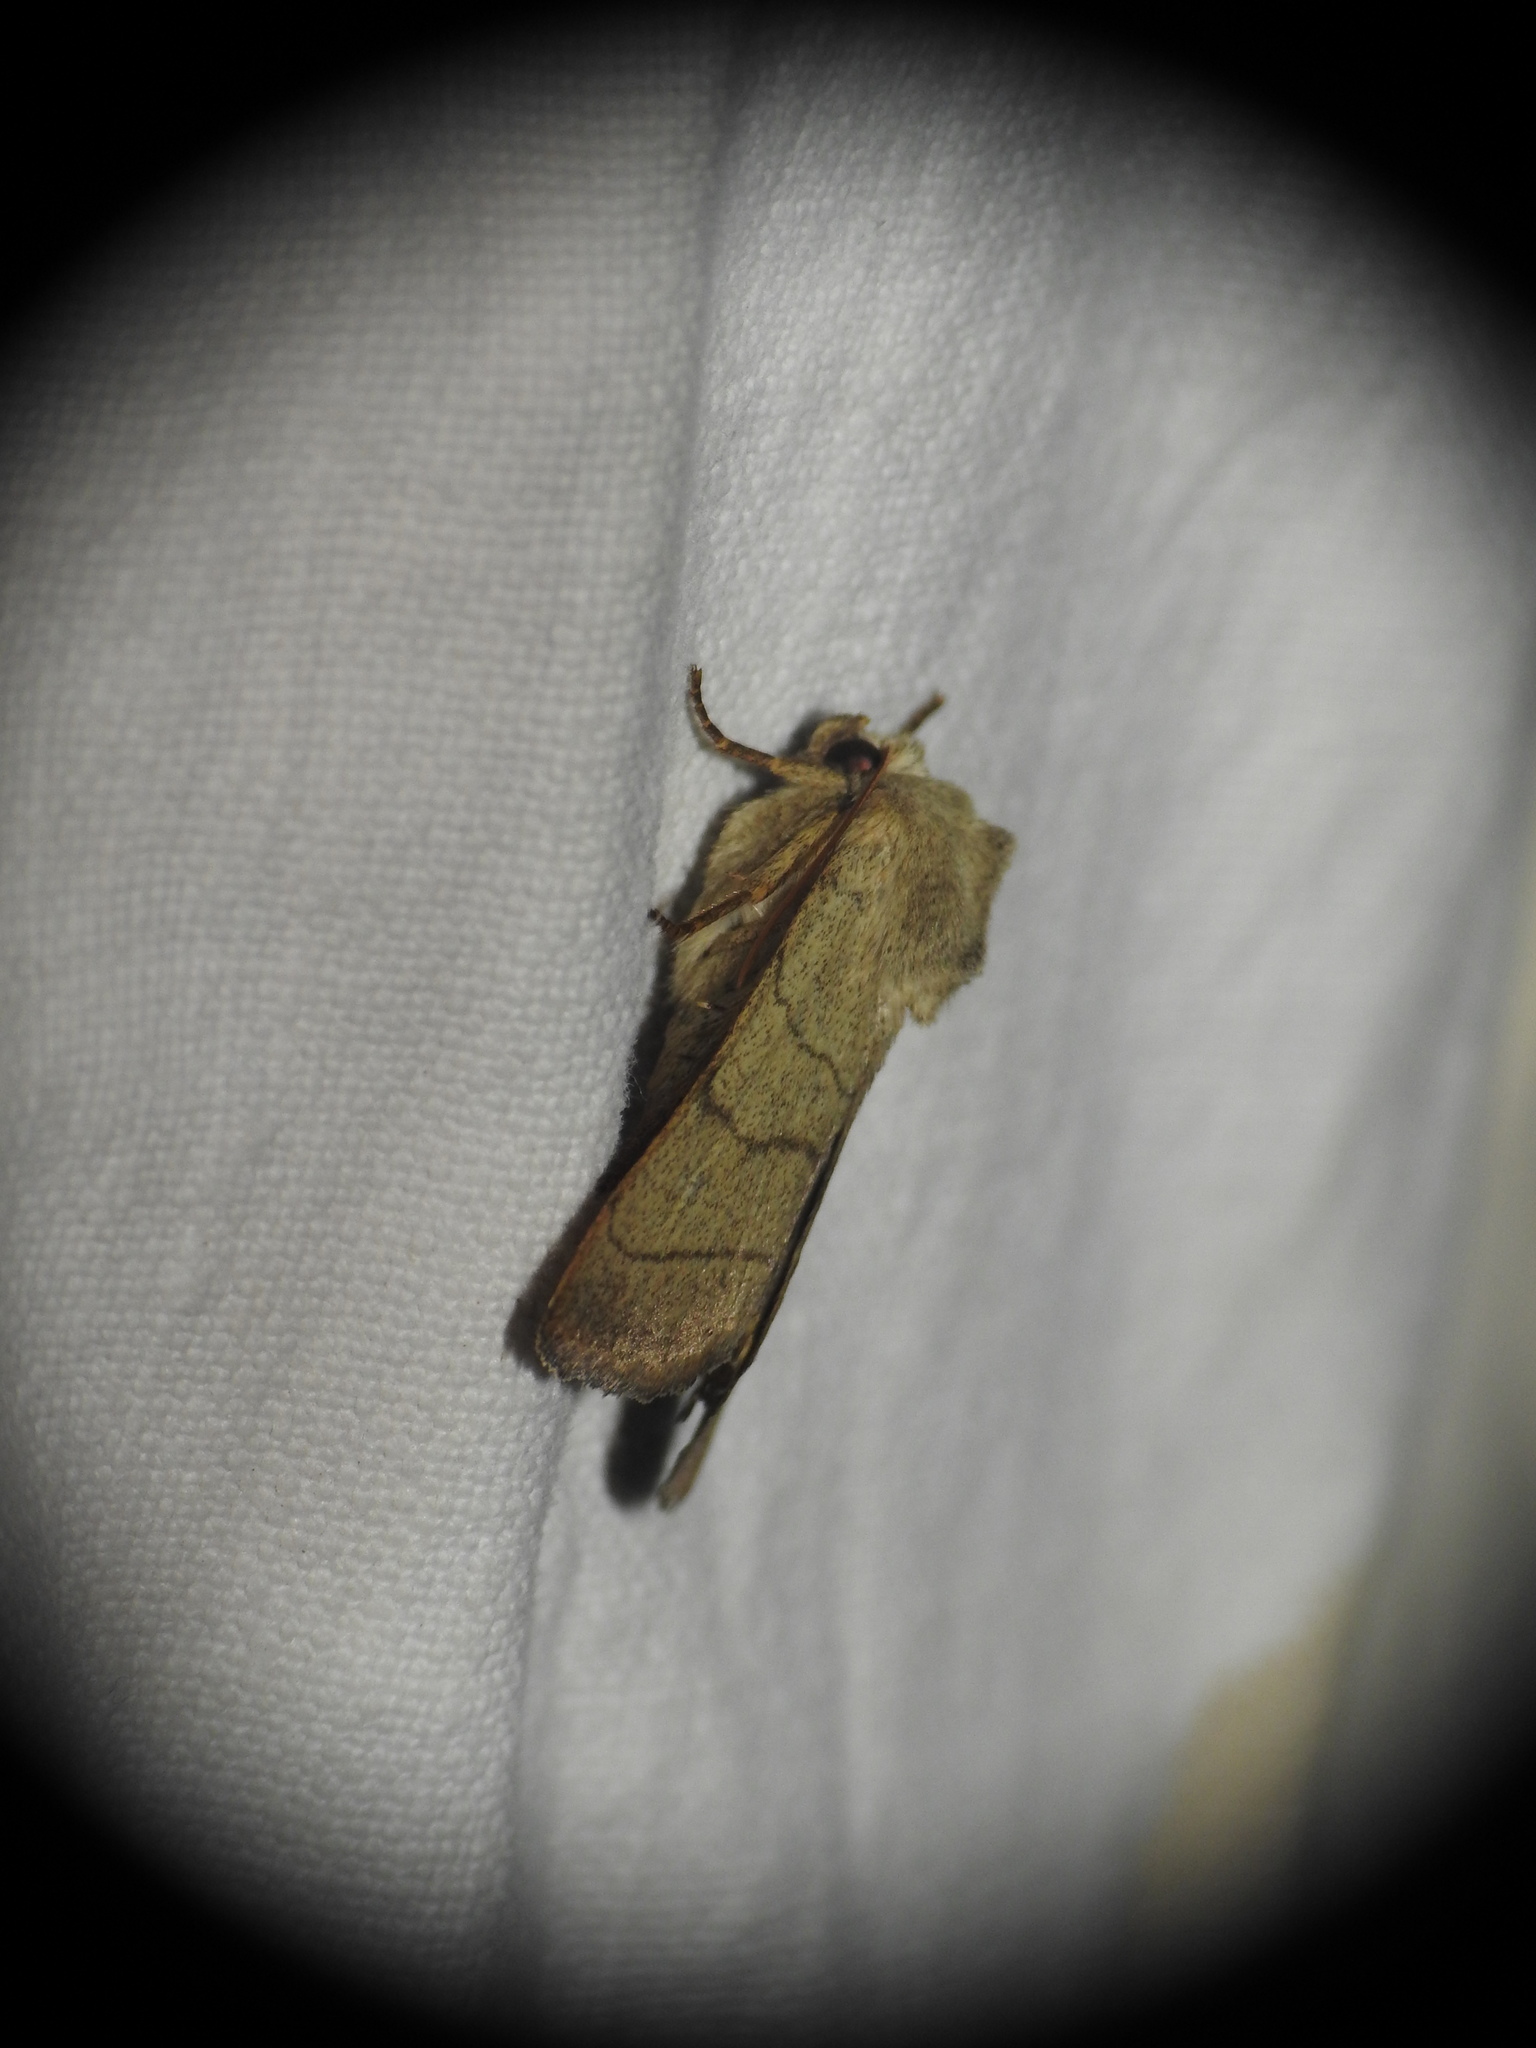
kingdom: Animalia
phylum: Arthropoda
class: Insecta
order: Lepidoptera
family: Noctuidae
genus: Charanyca
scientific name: Charanyca trigrammica
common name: Treble lines
